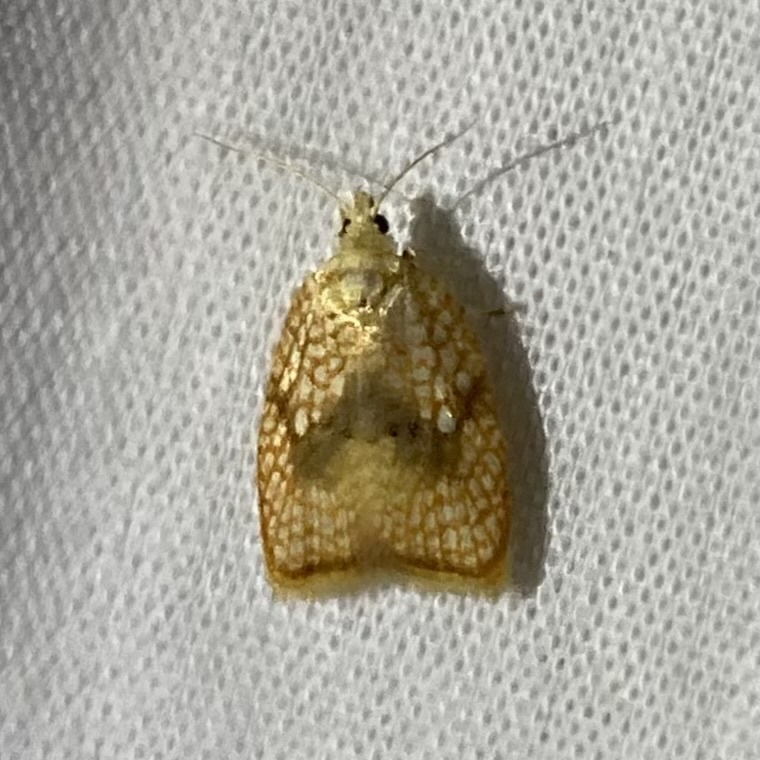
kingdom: Animalia
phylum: Arthropoda
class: Insecta
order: Lepidoptera
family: Tortricidae
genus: Acleris
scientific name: Acleris forsskaleana
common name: Maple button
